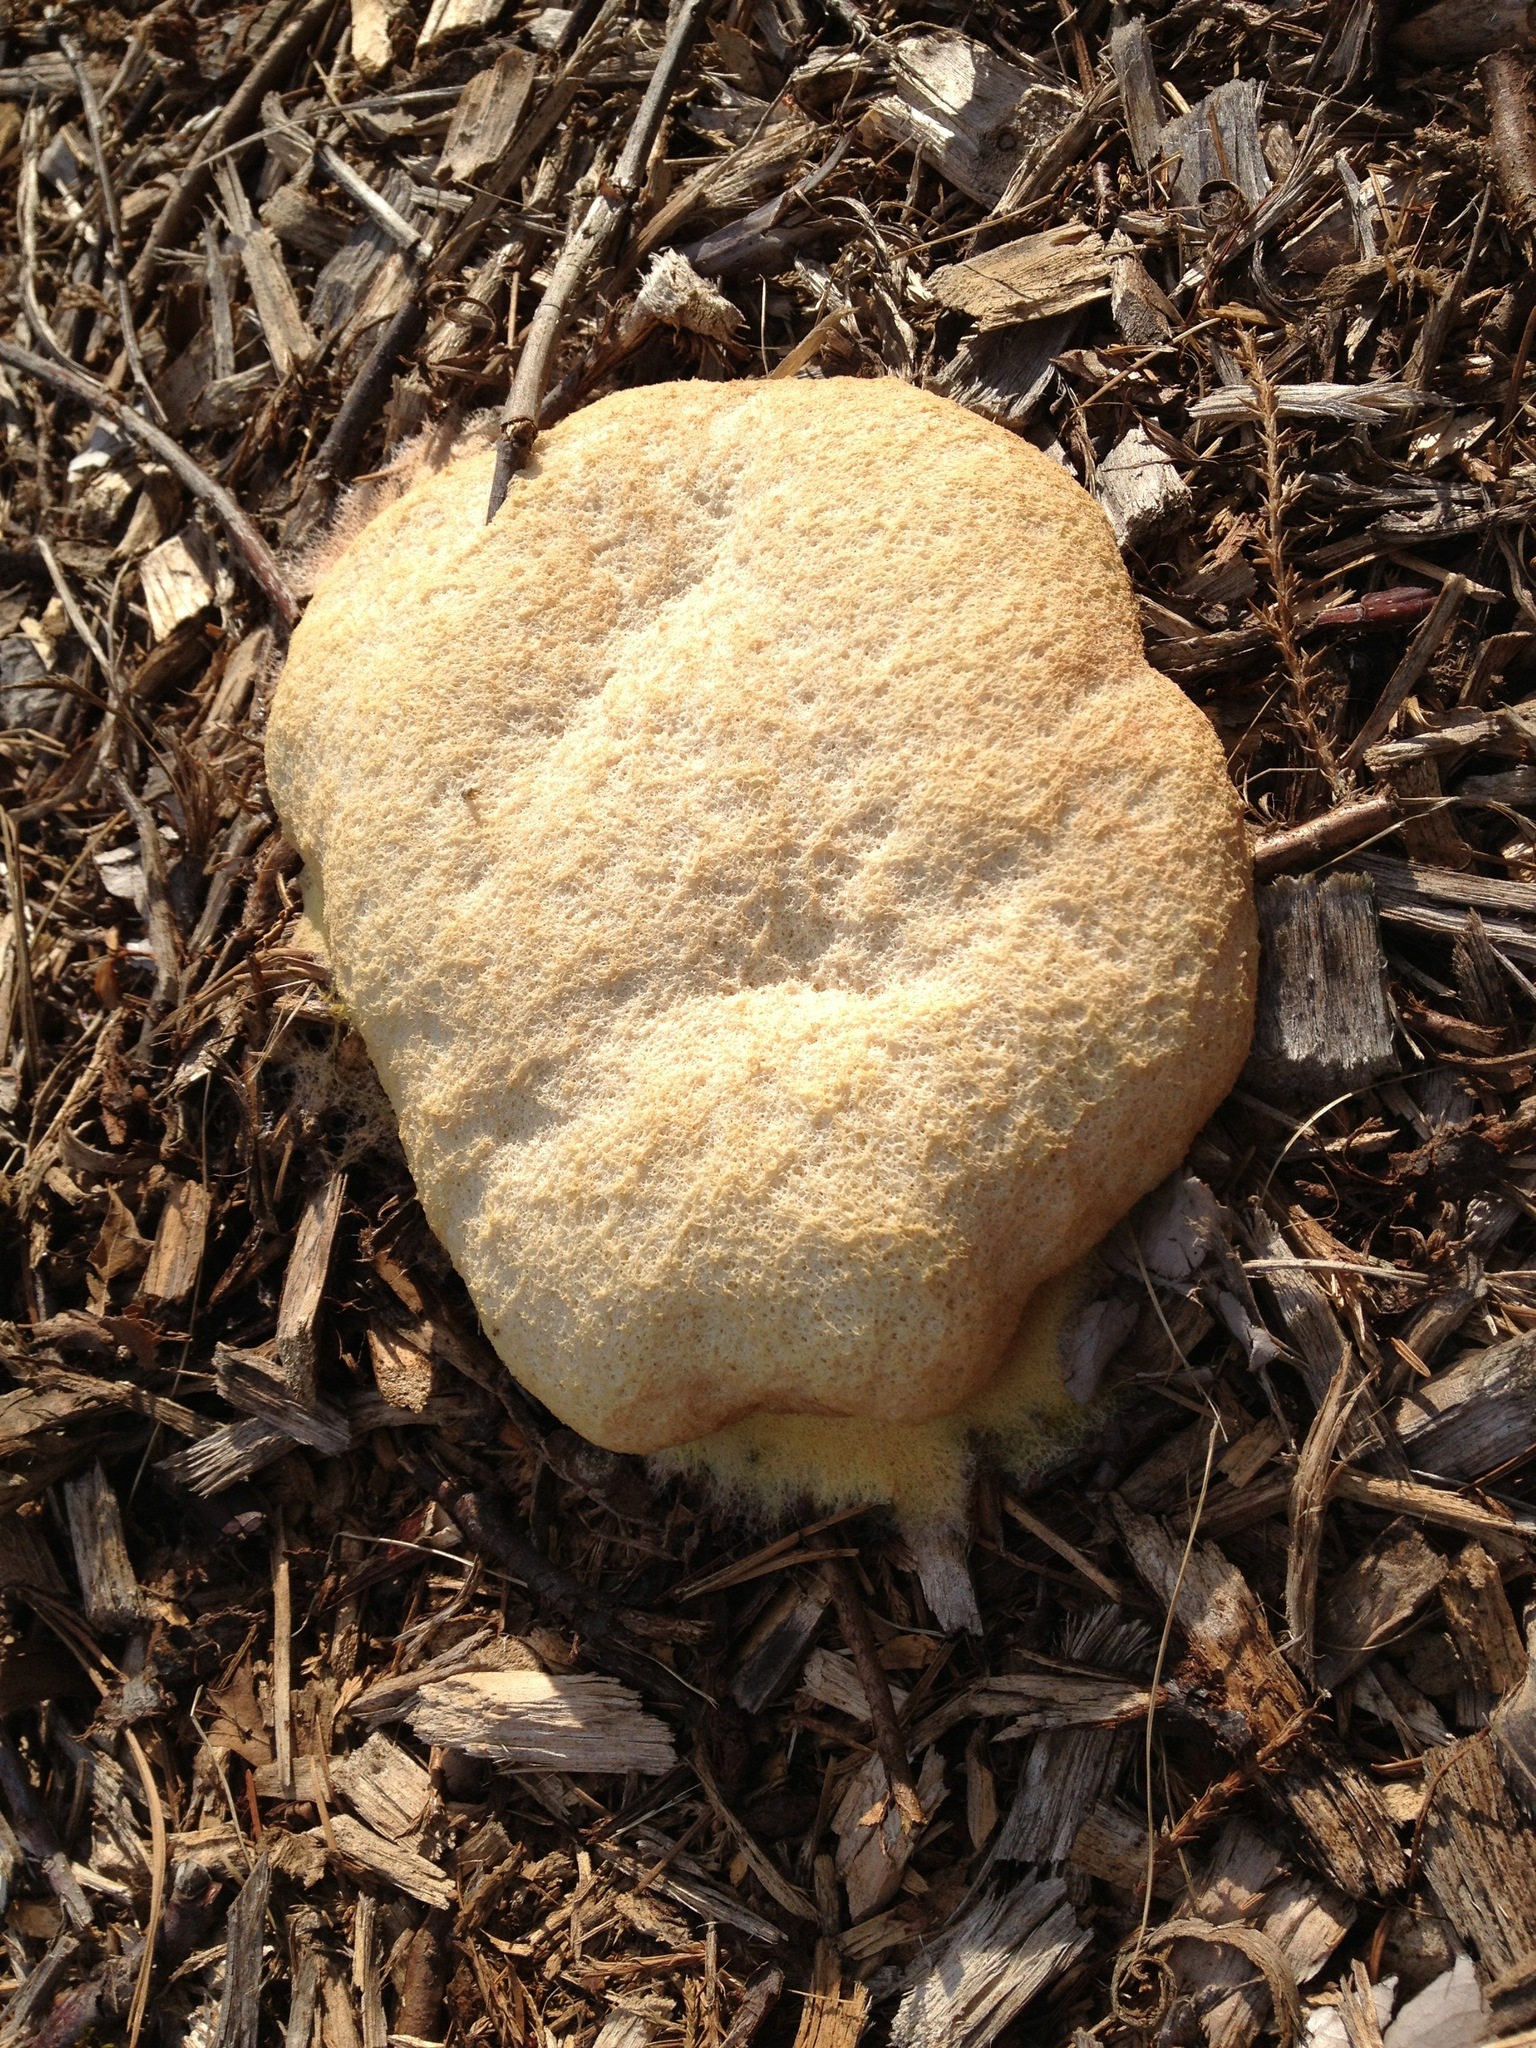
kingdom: Protozoa
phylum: Mycetozoa
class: Myxomycetes
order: Physarales
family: Physaraceae
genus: Fuligo
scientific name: Fuligo septica
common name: Dog vomit slime mold
